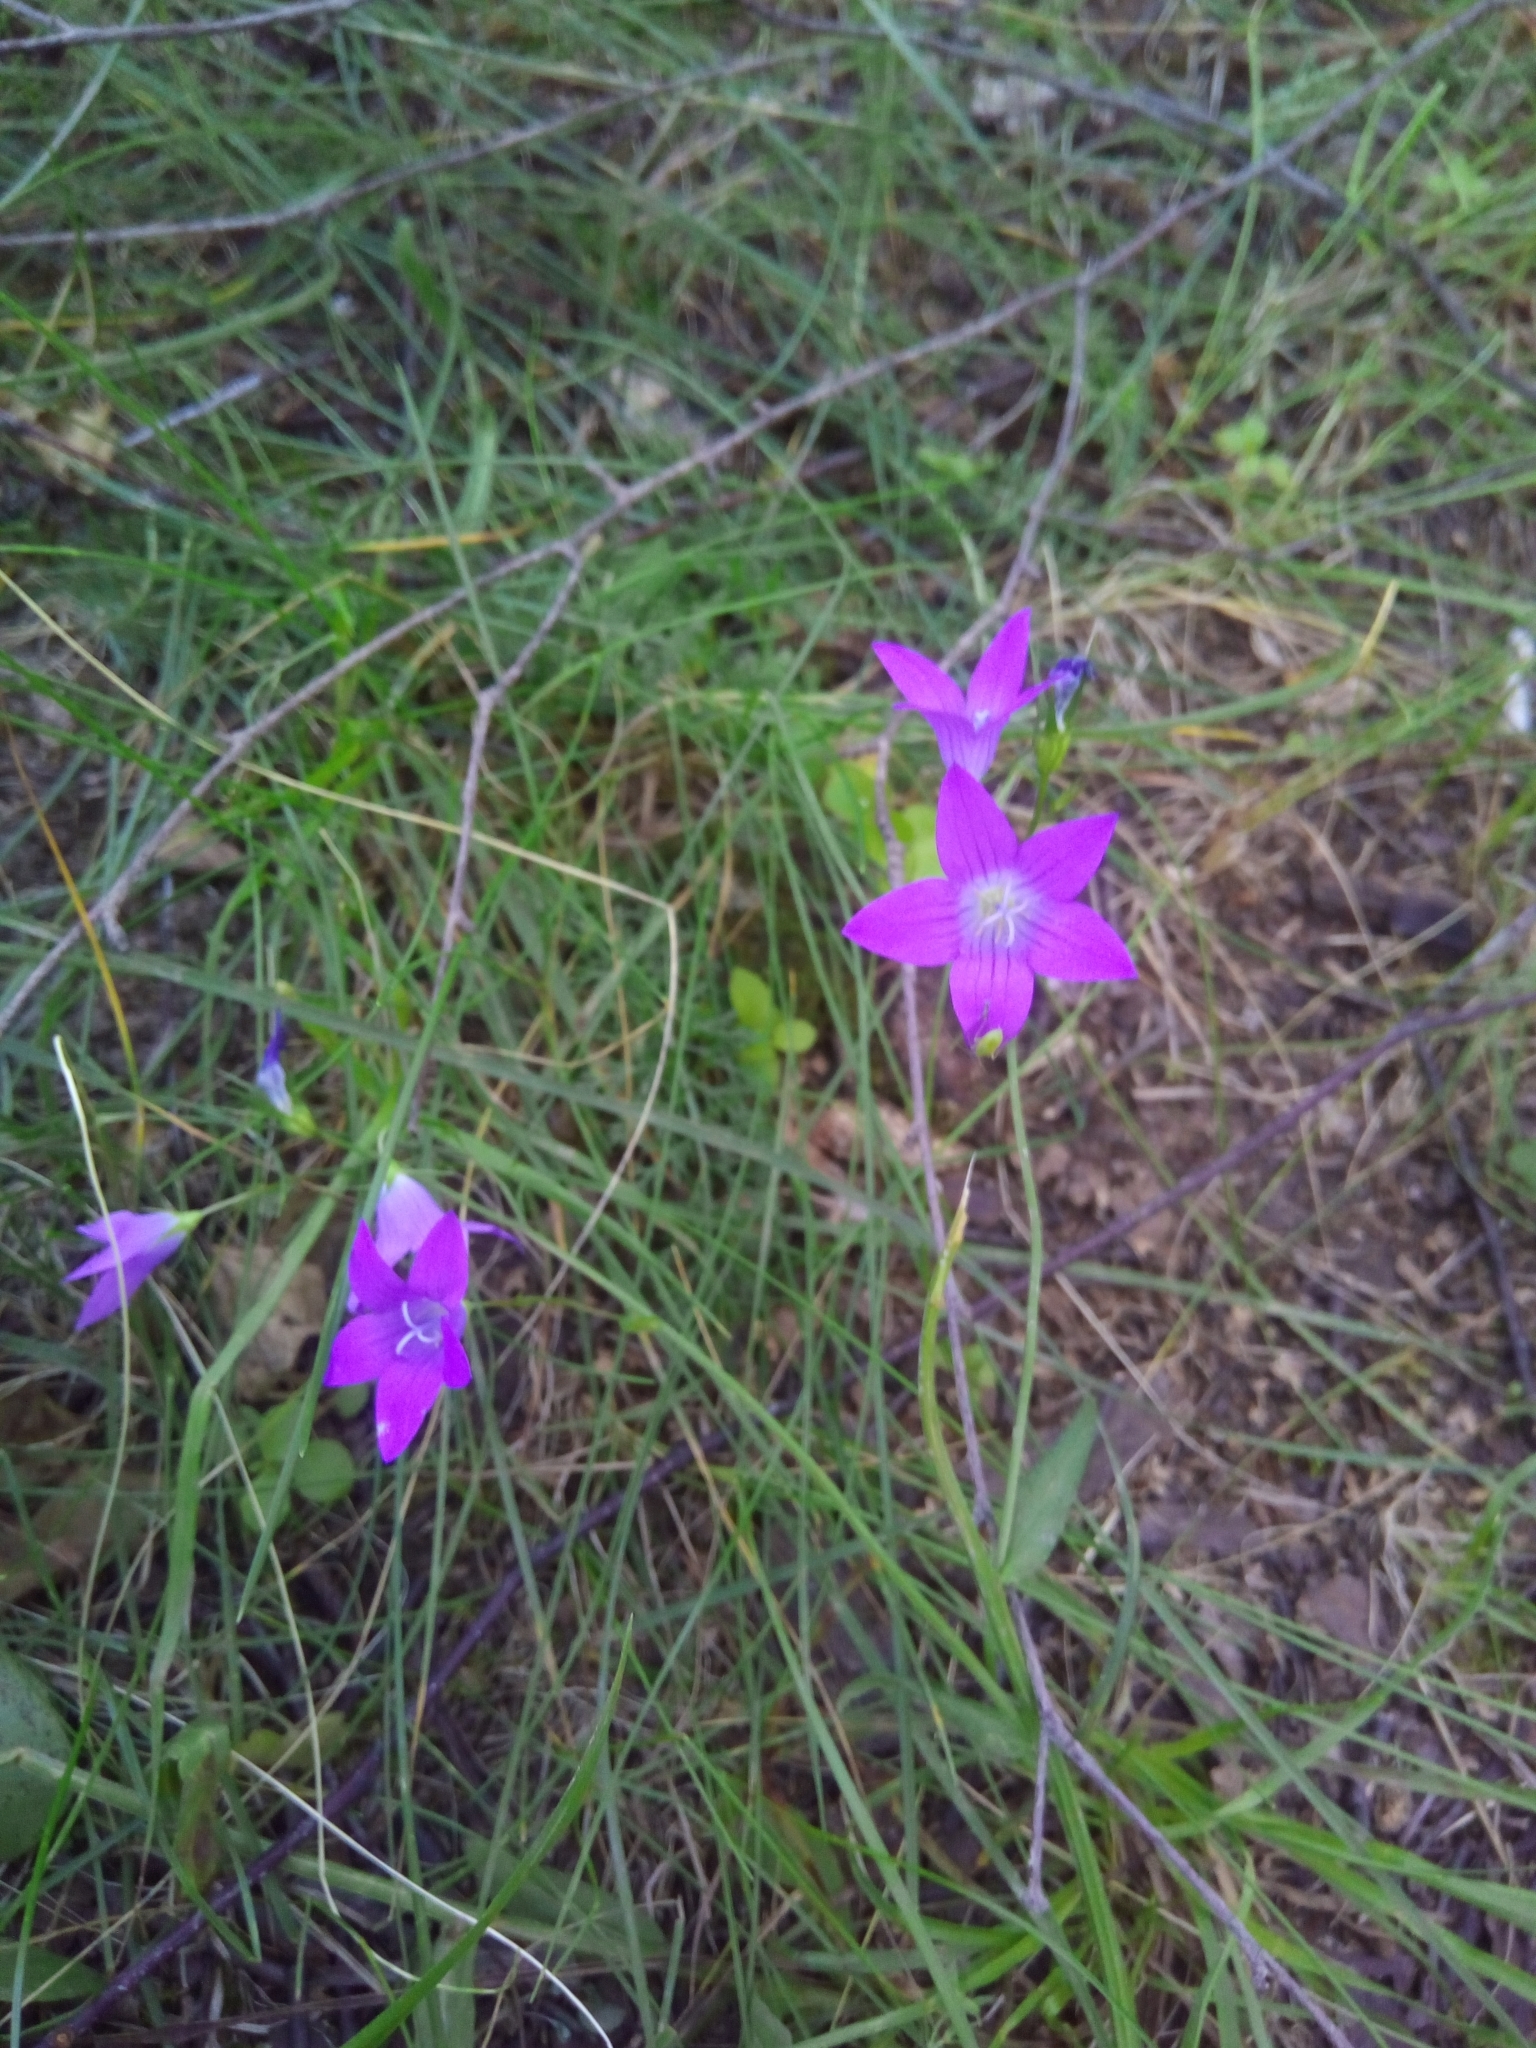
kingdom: Plantae
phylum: Tracheophyta
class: Magnoliopsida
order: Asterales
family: Campanulaceae
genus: Campanula
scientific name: Campanula patula
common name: Spreading bellflower
